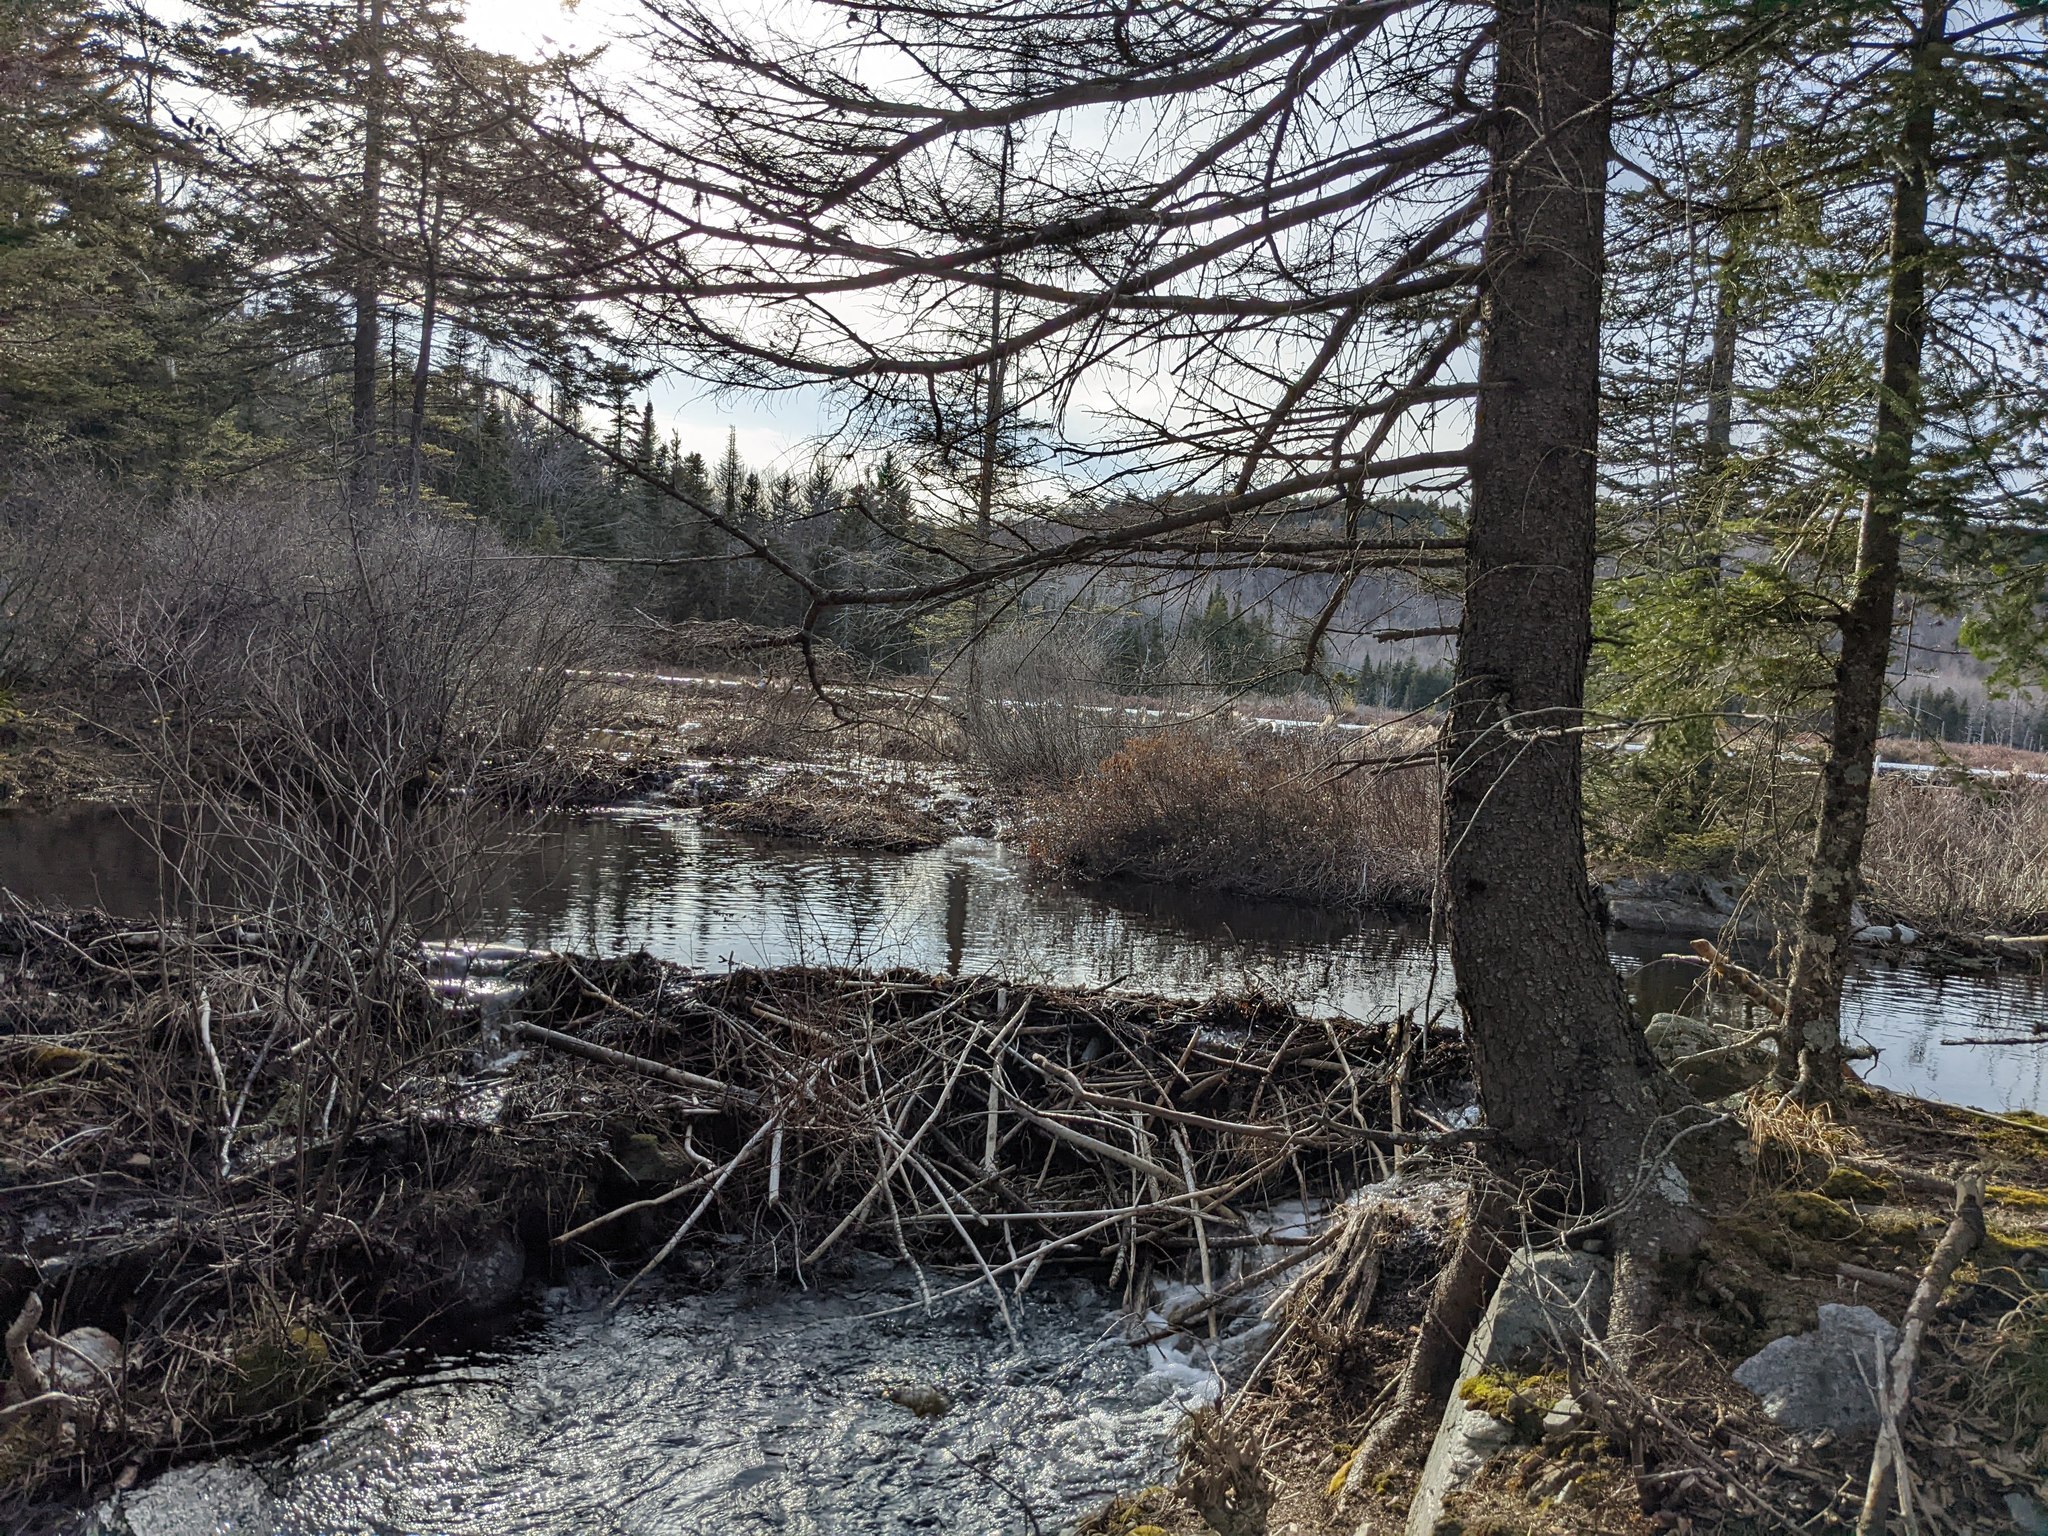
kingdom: Animalia
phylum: Chordata
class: Mammalia
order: Rodentia
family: Castoridae
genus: Castor
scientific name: Castor canadensis
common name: American beaver
